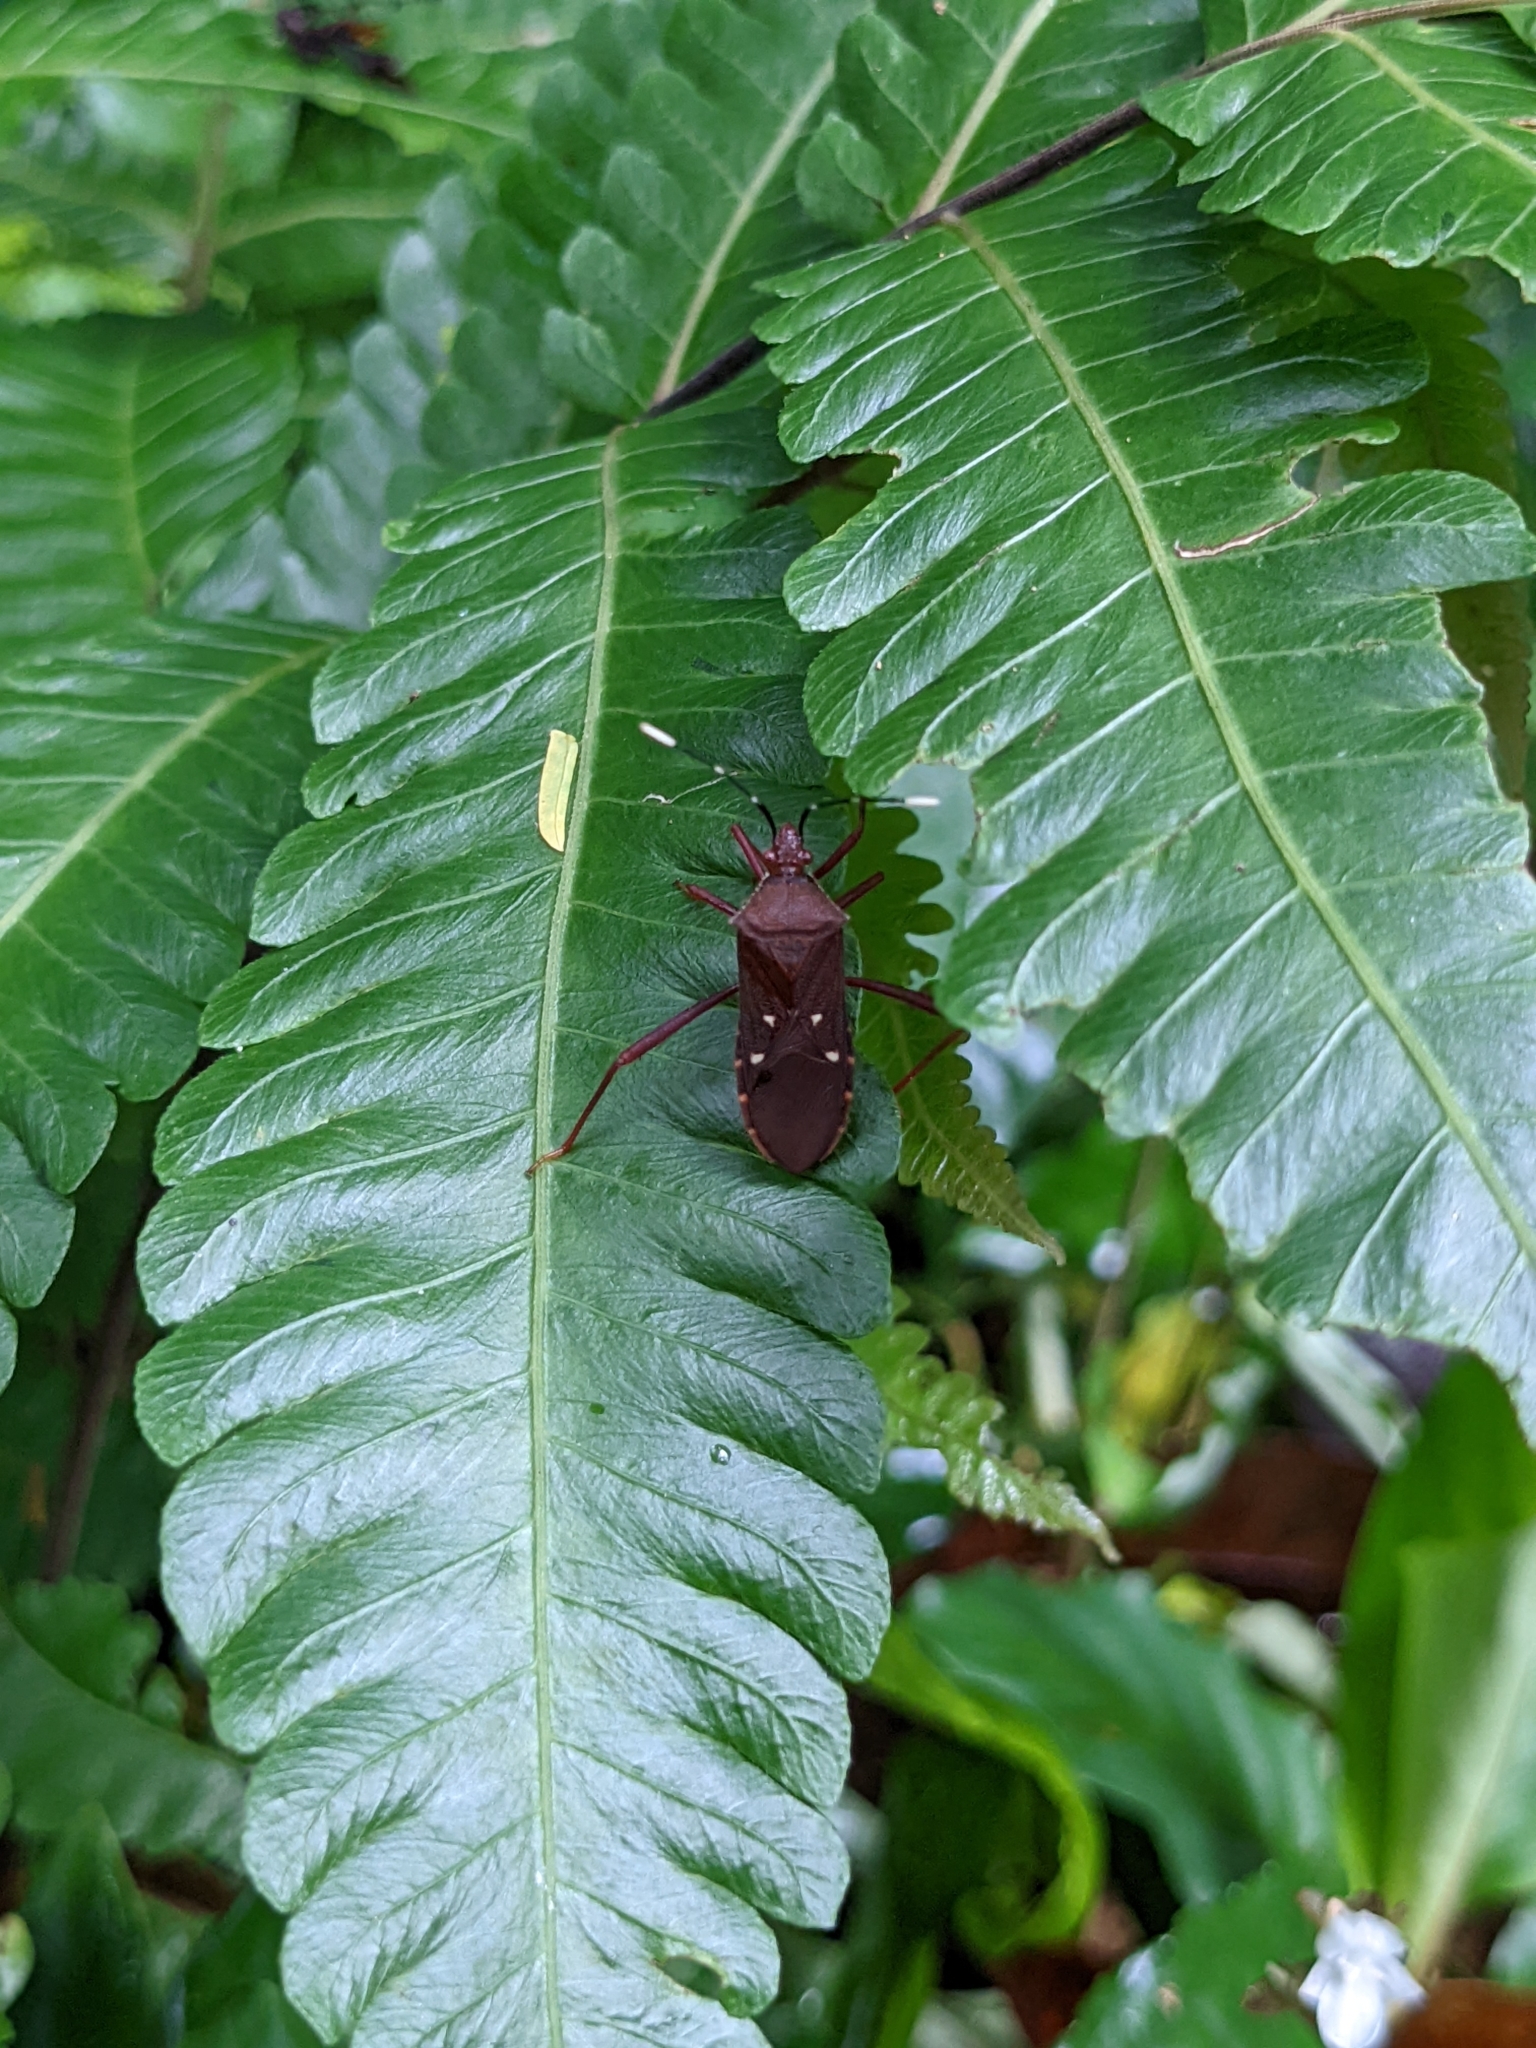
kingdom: Animalia
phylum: Arthropoda
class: Insecta
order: Hemiptera
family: Coreidae
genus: Leptoscelis
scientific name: Leptoscelis quadrisignatus
